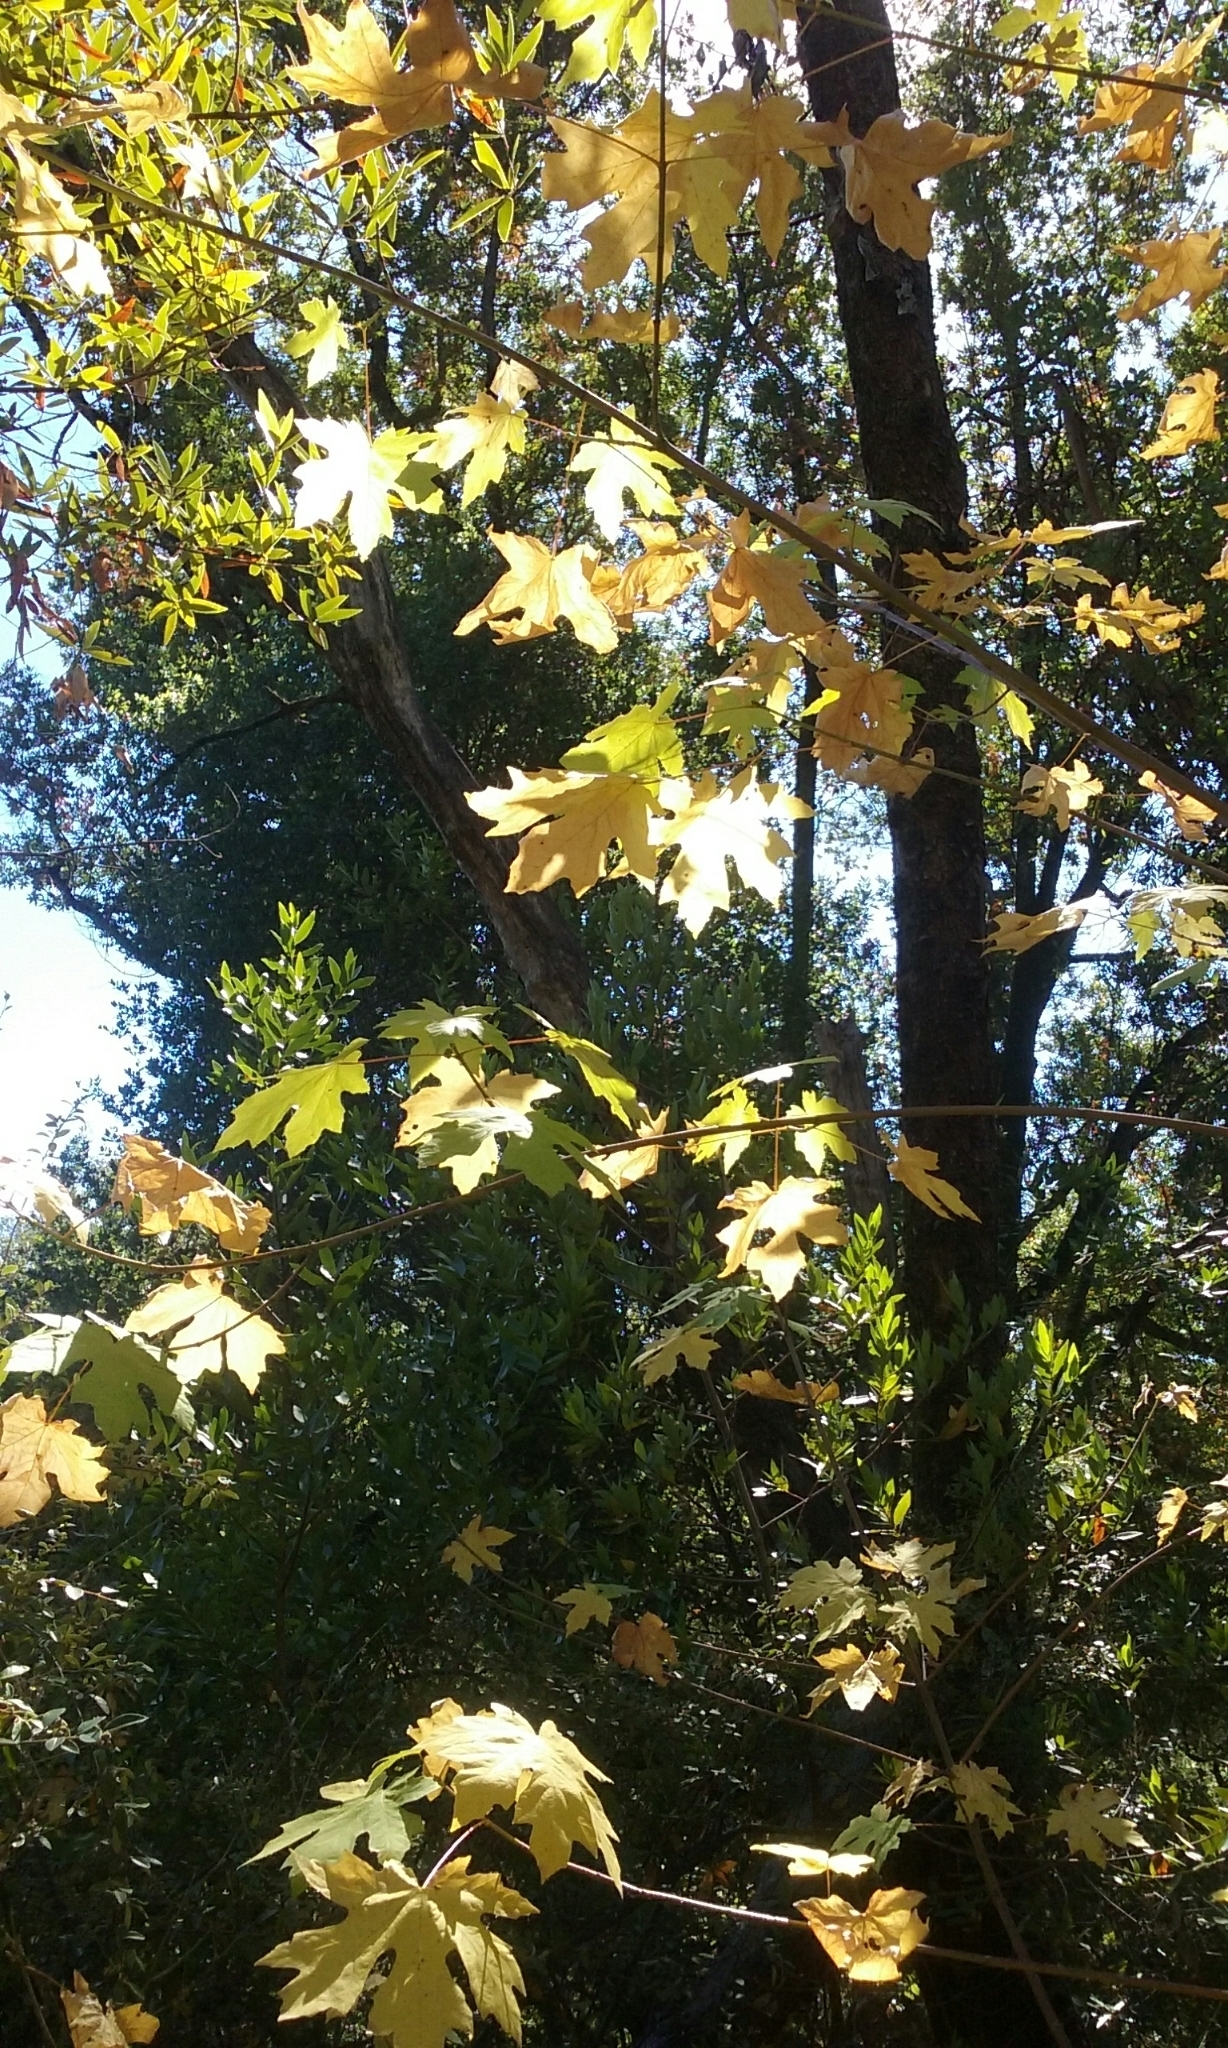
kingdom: Plantae
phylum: Tracheophyta
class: Magnoliopsida
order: Sapindales
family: Sapindaceae
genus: Acer
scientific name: Acer macrophyllum
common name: Oregon maple
